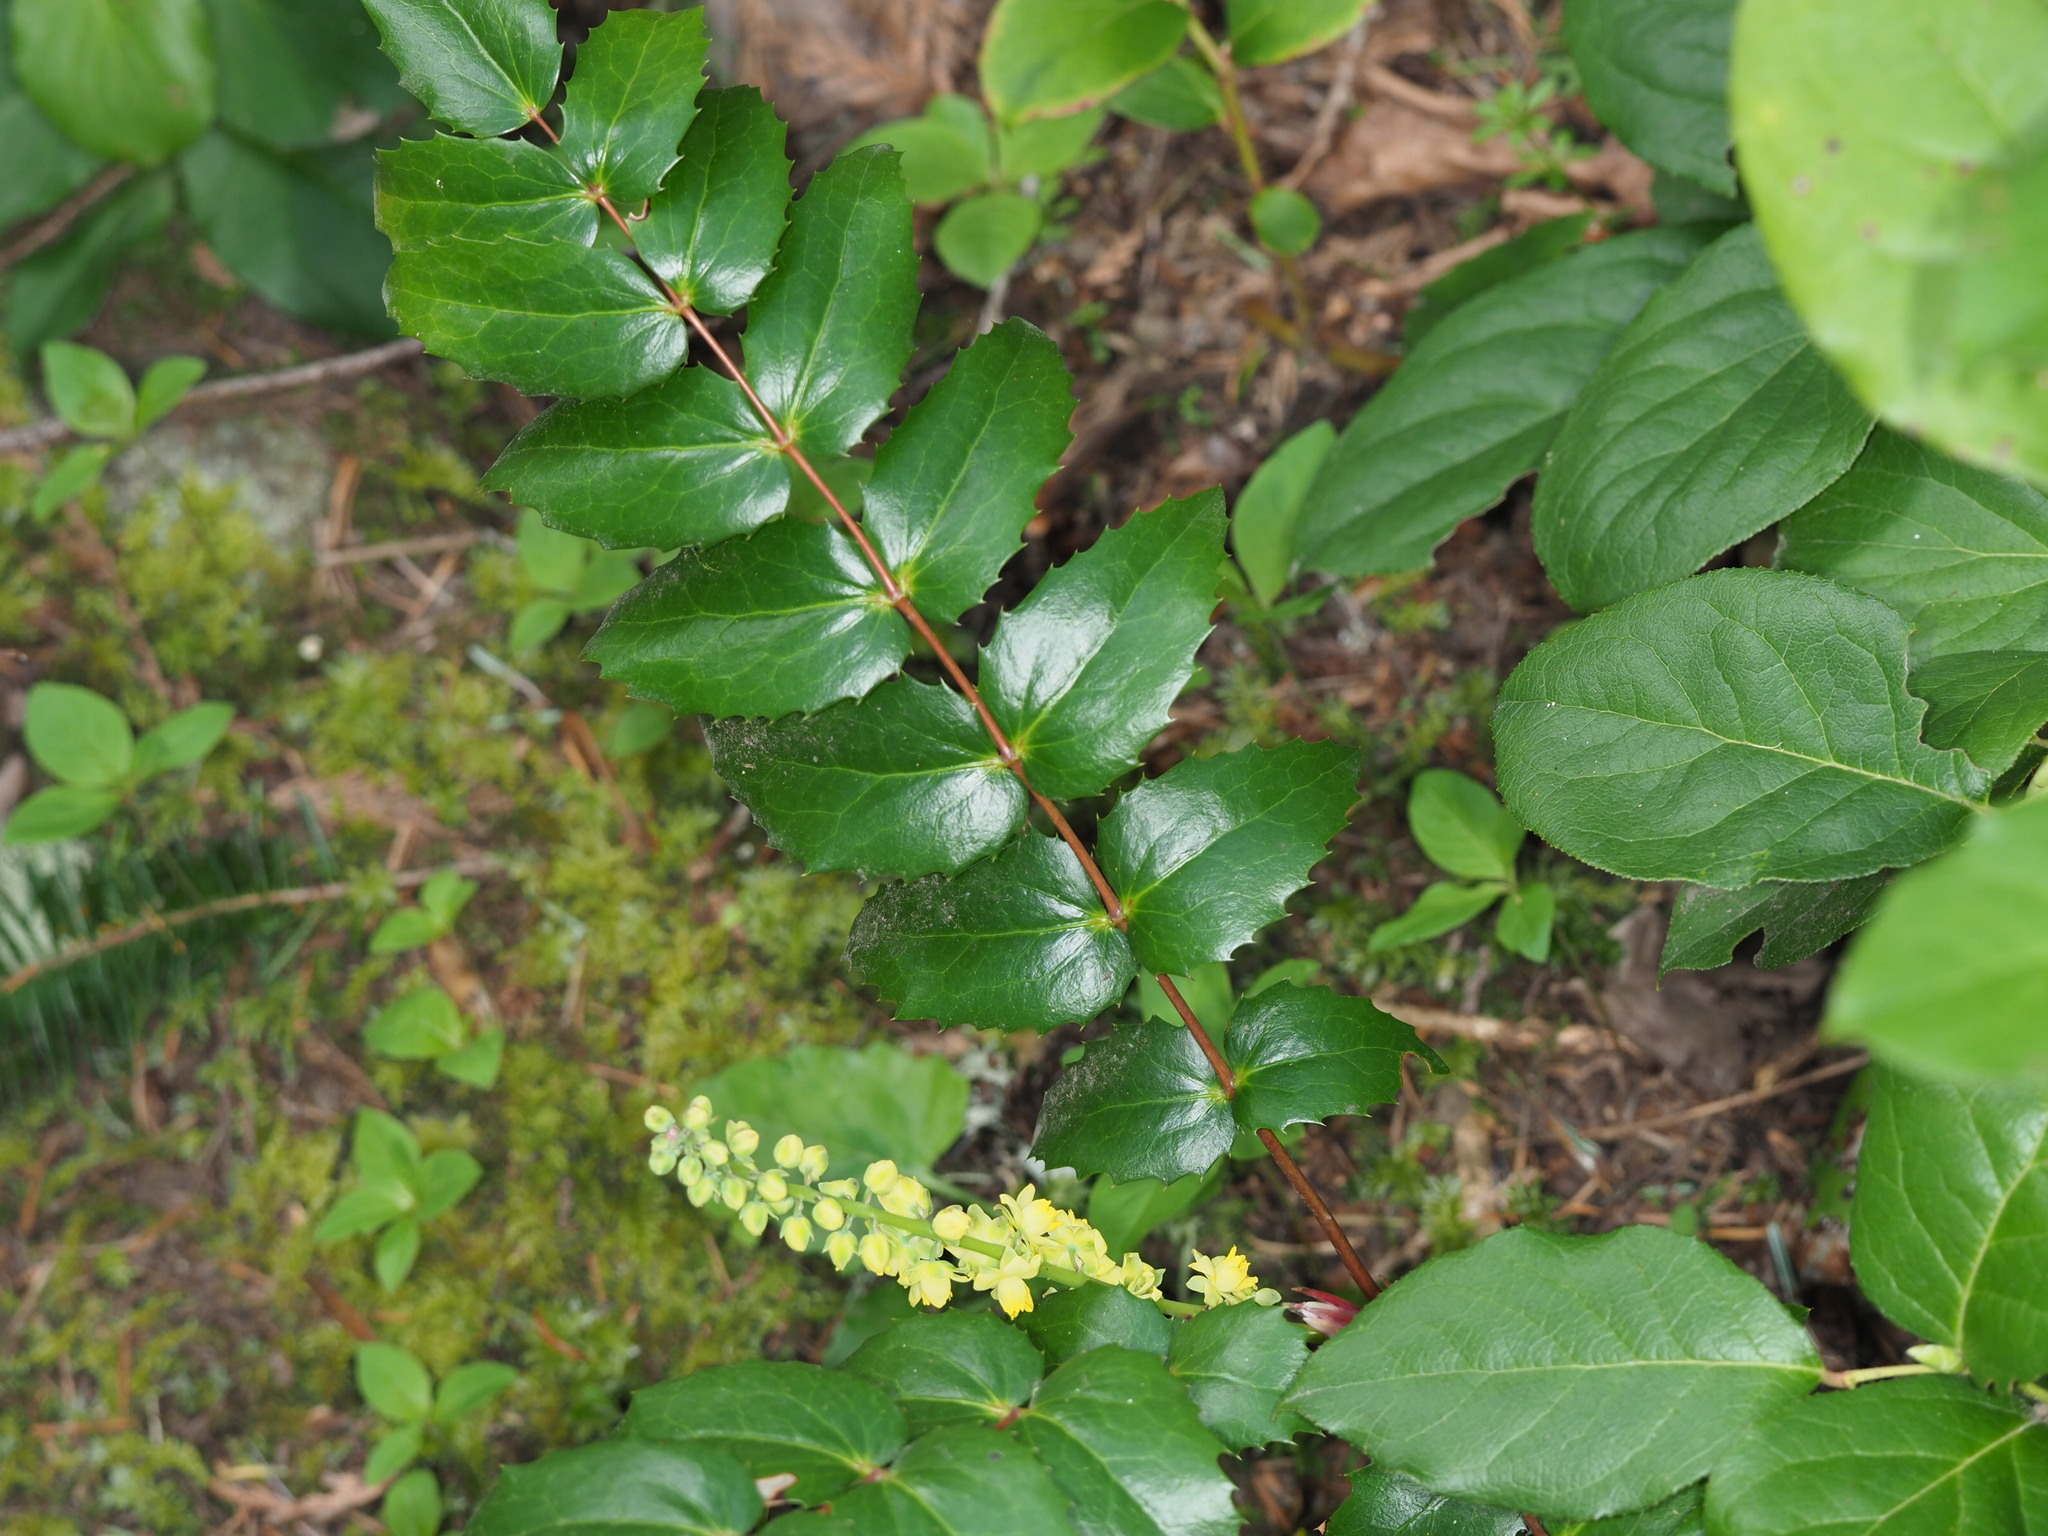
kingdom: Plantae
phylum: Tracheophyta
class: Magnoliopsida
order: Ranunculales
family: Berberidaceae
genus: Mahonia
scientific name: Mahonia nervosa
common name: Cascade oregon-grape
